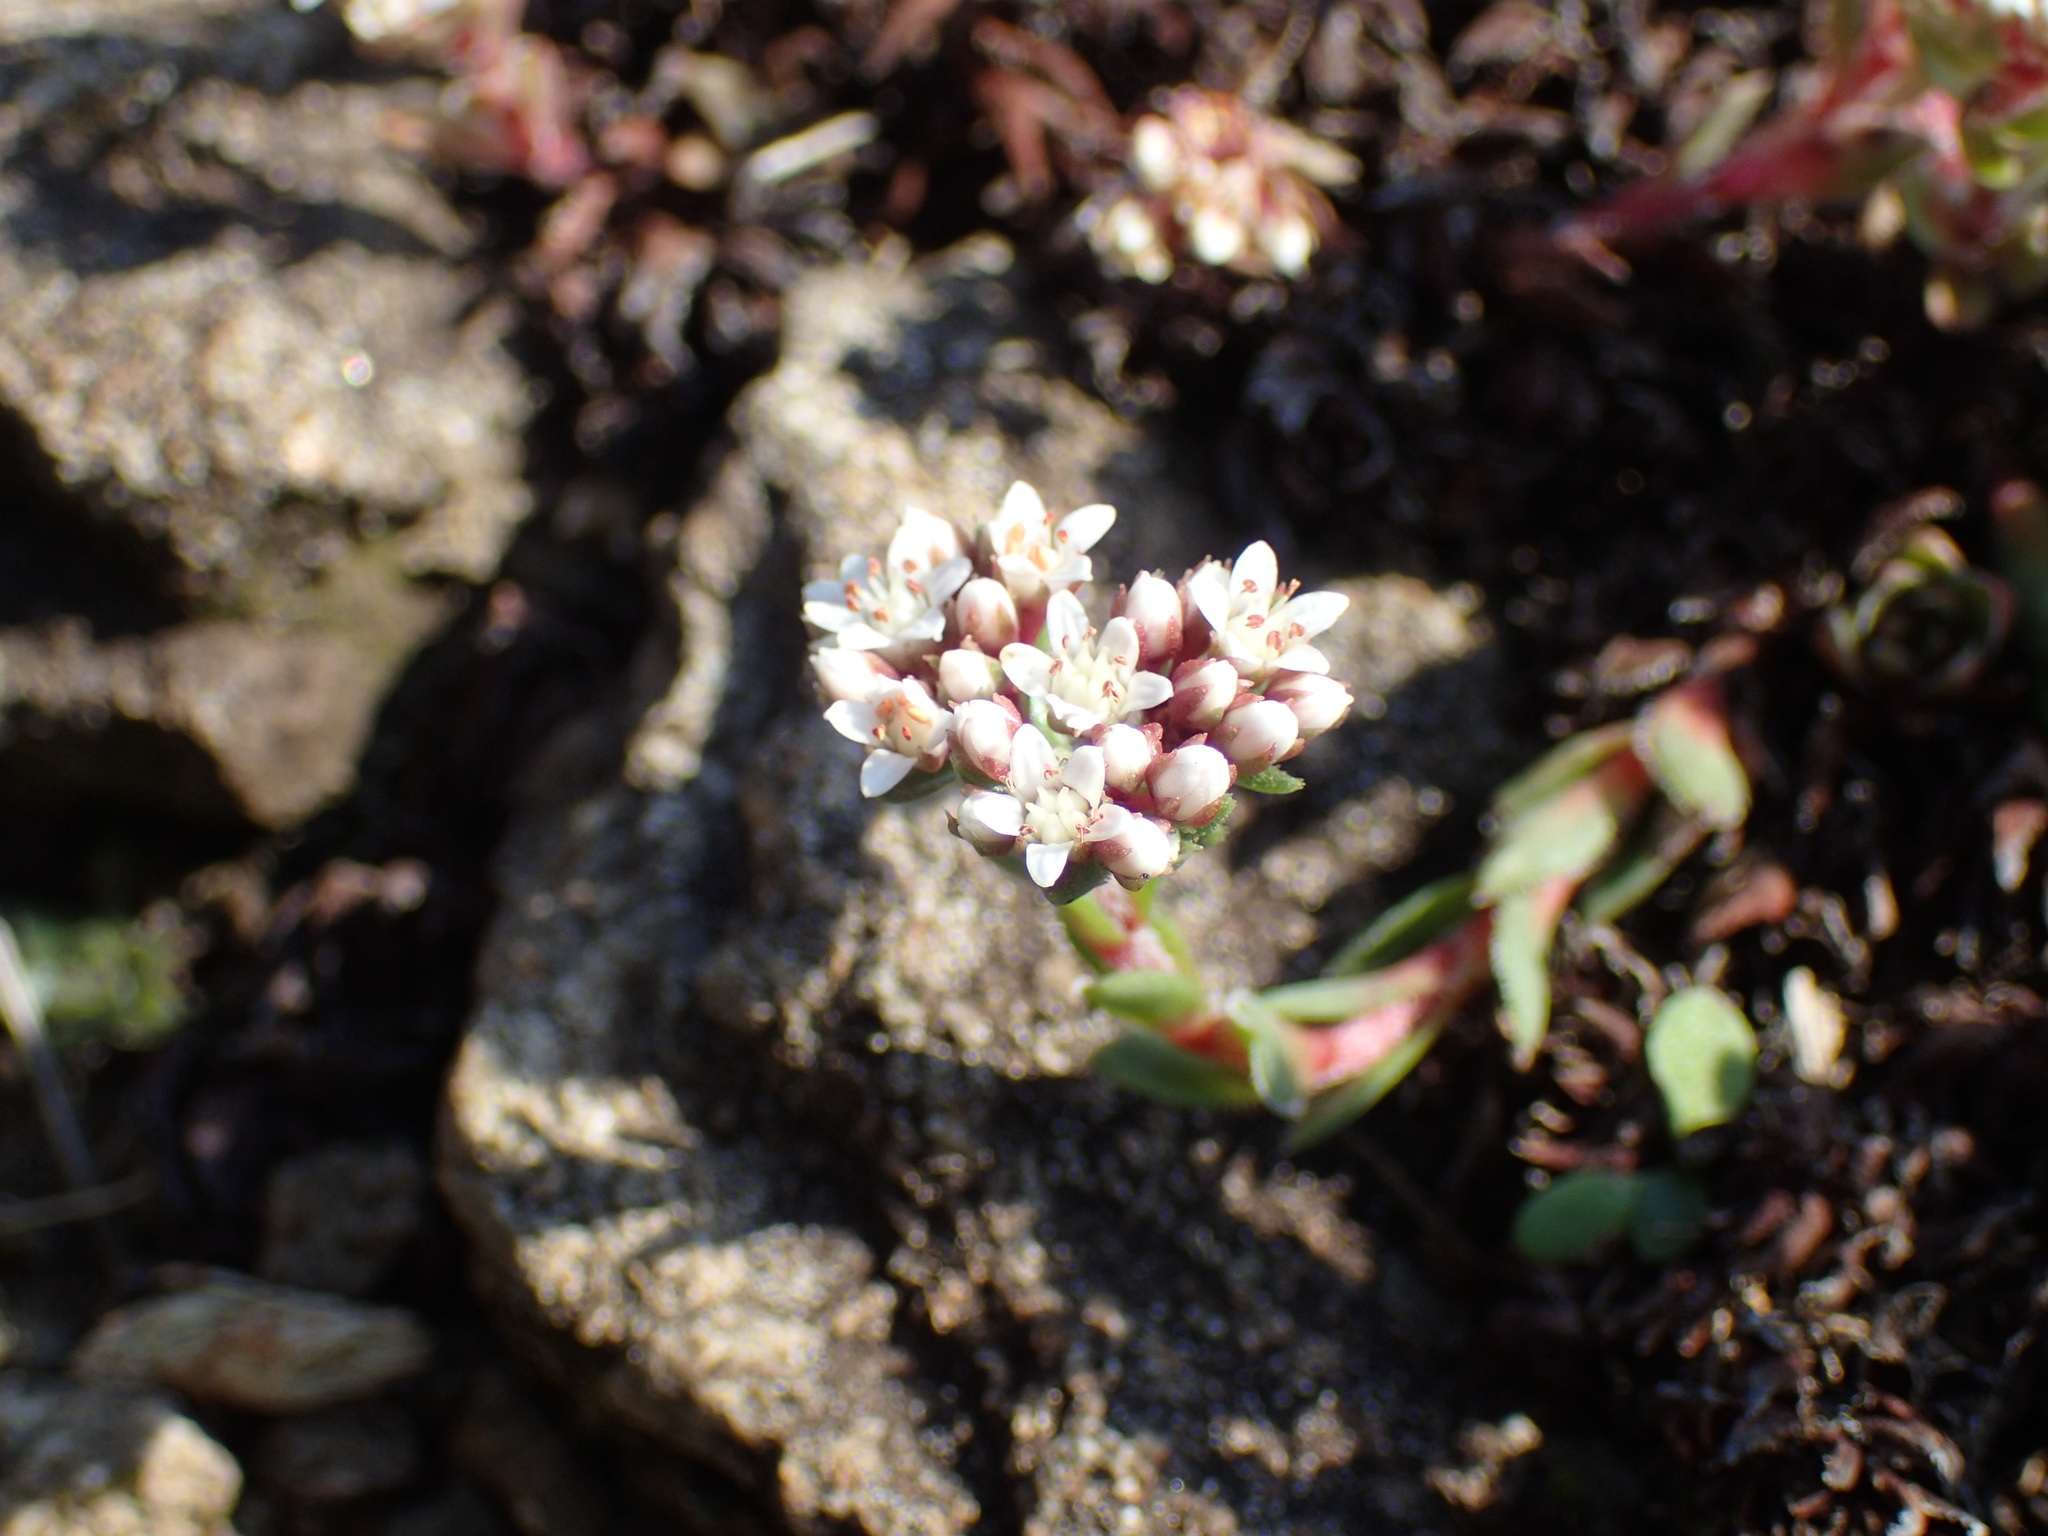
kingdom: Plantae
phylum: Tracheophyta
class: Magnoliopsida
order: Saxifragales
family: Crassulaceae
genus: Crassula
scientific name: Crassula setulosa
